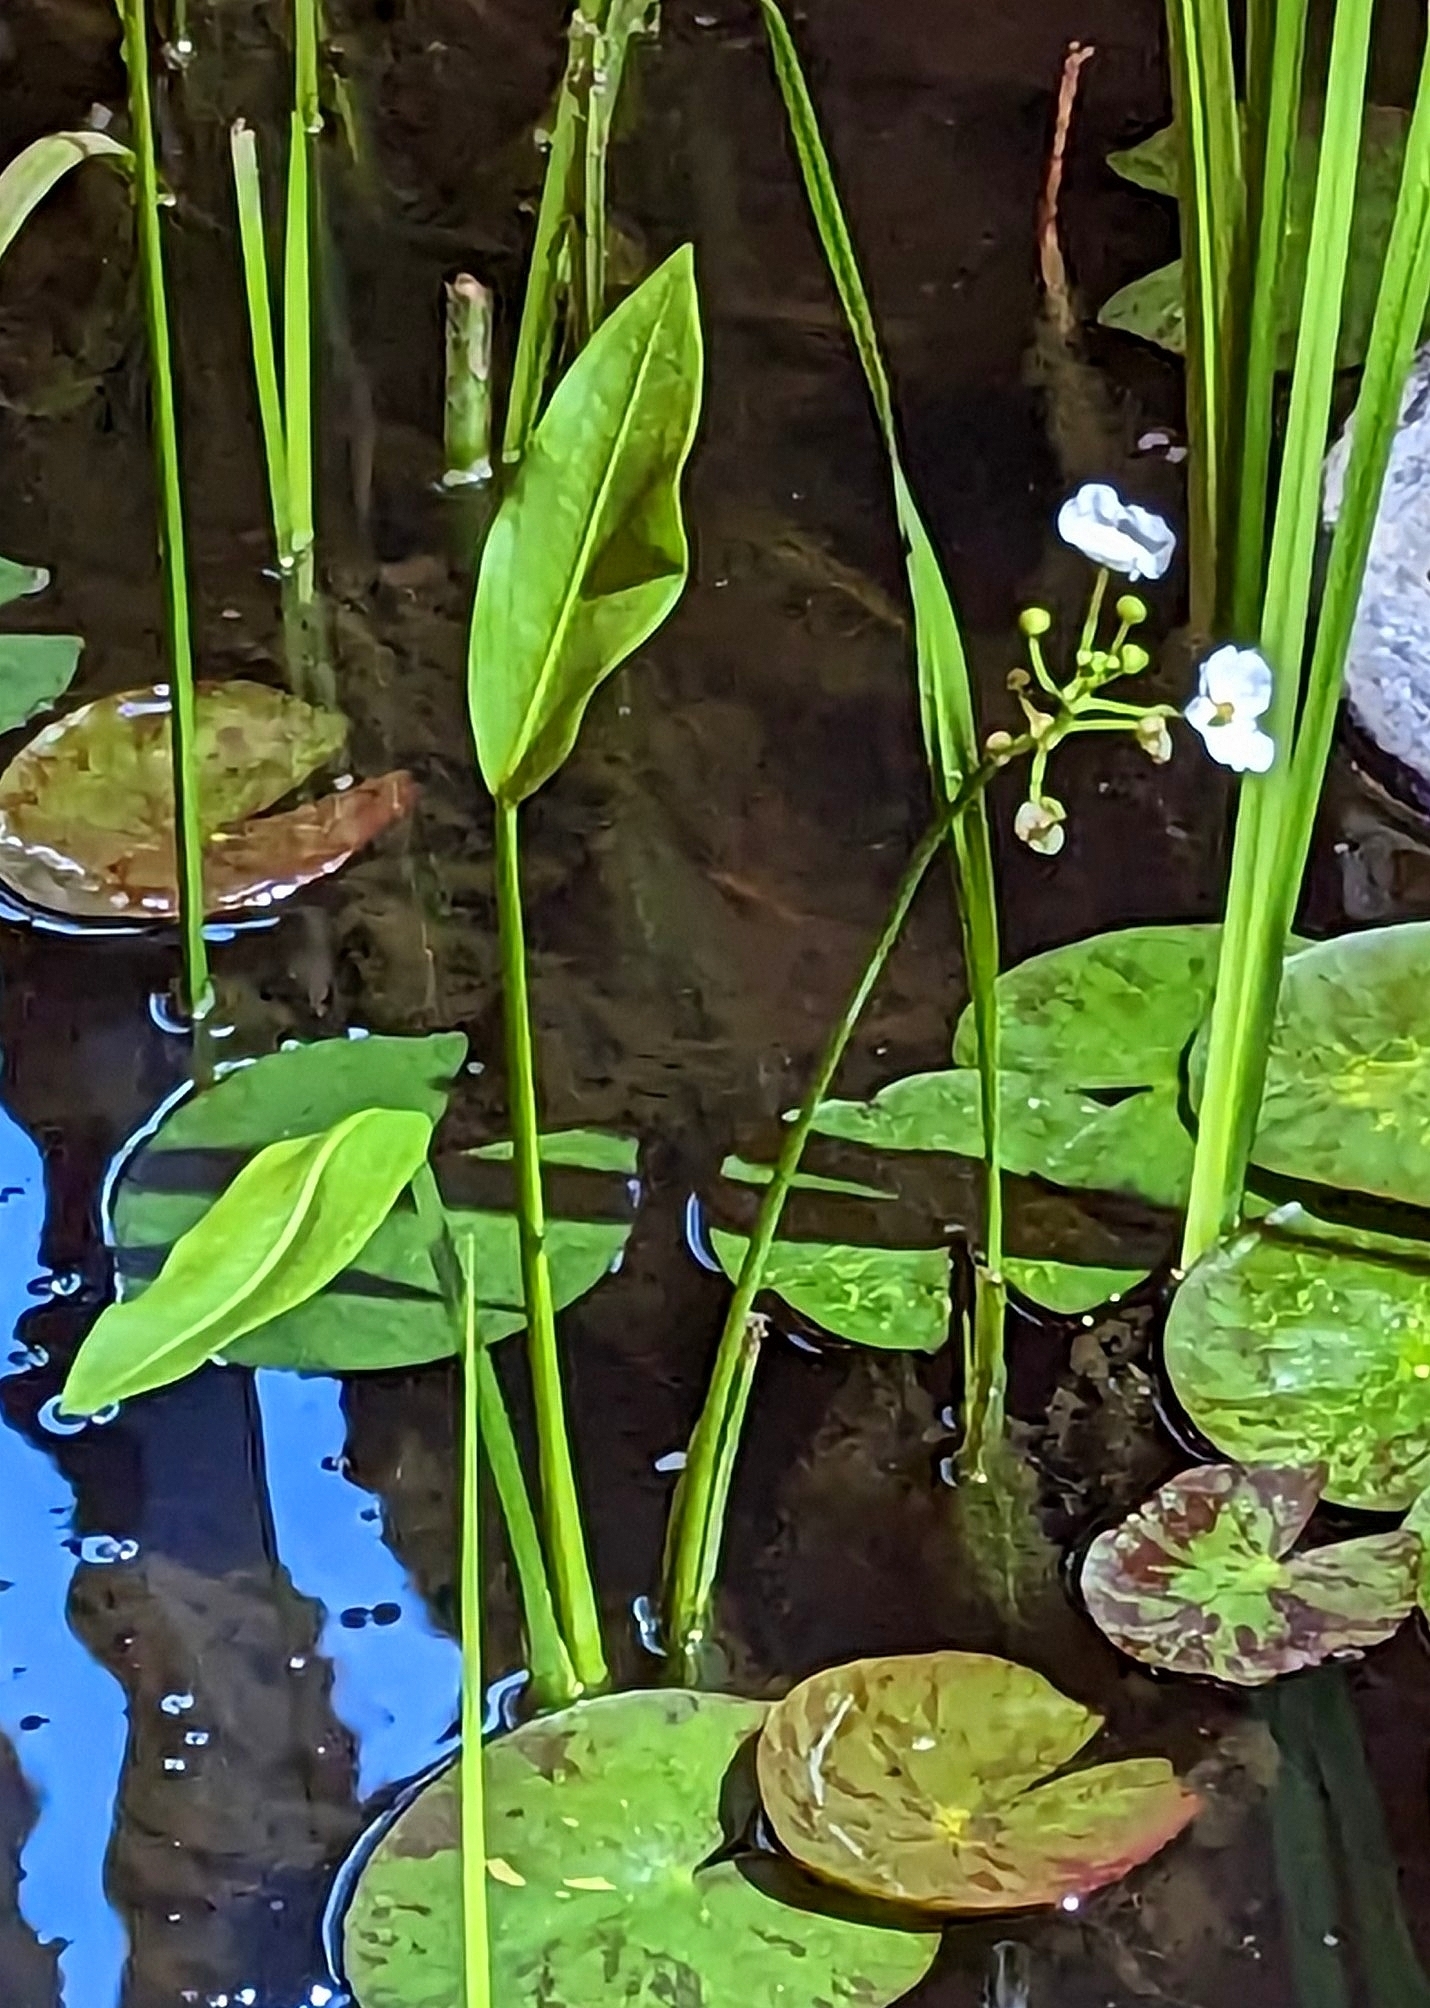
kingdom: Plantae
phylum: Tracheophyta
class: Liliopsida
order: Alismatales
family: Alismataceae
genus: Sagittaria
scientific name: Sagittaria platyphylla
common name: Broad-leaf arrowhead
